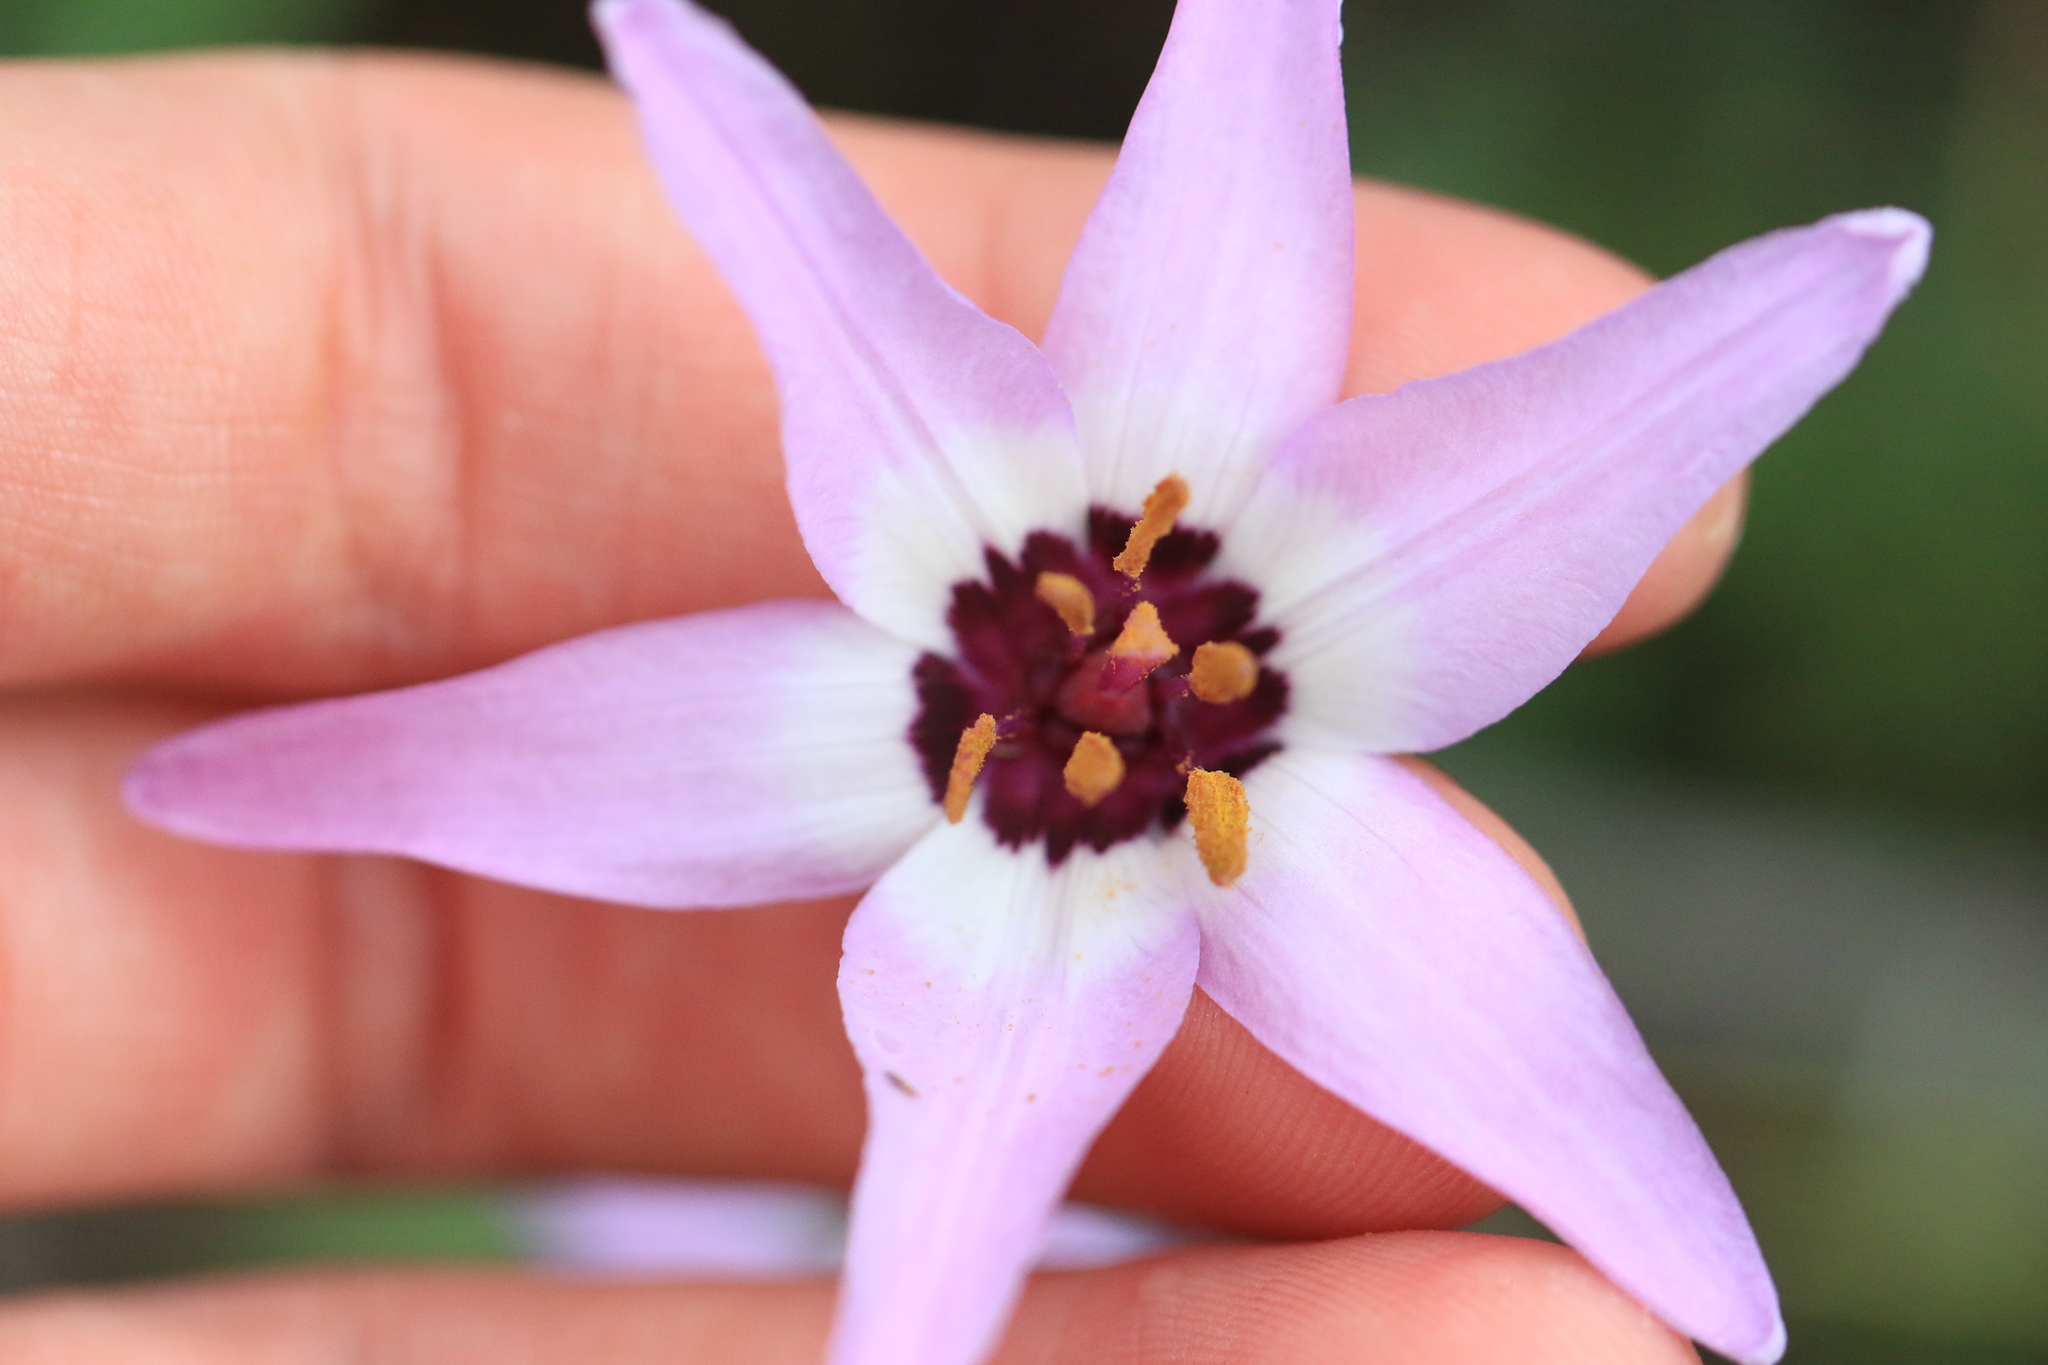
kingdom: Plantae
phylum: Tracheophyta
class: Liliopsida
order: Liliales
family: Liliaceae
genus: Erythronium
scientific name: Erythronium hendersonii
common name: Henderson's fawn-lily
